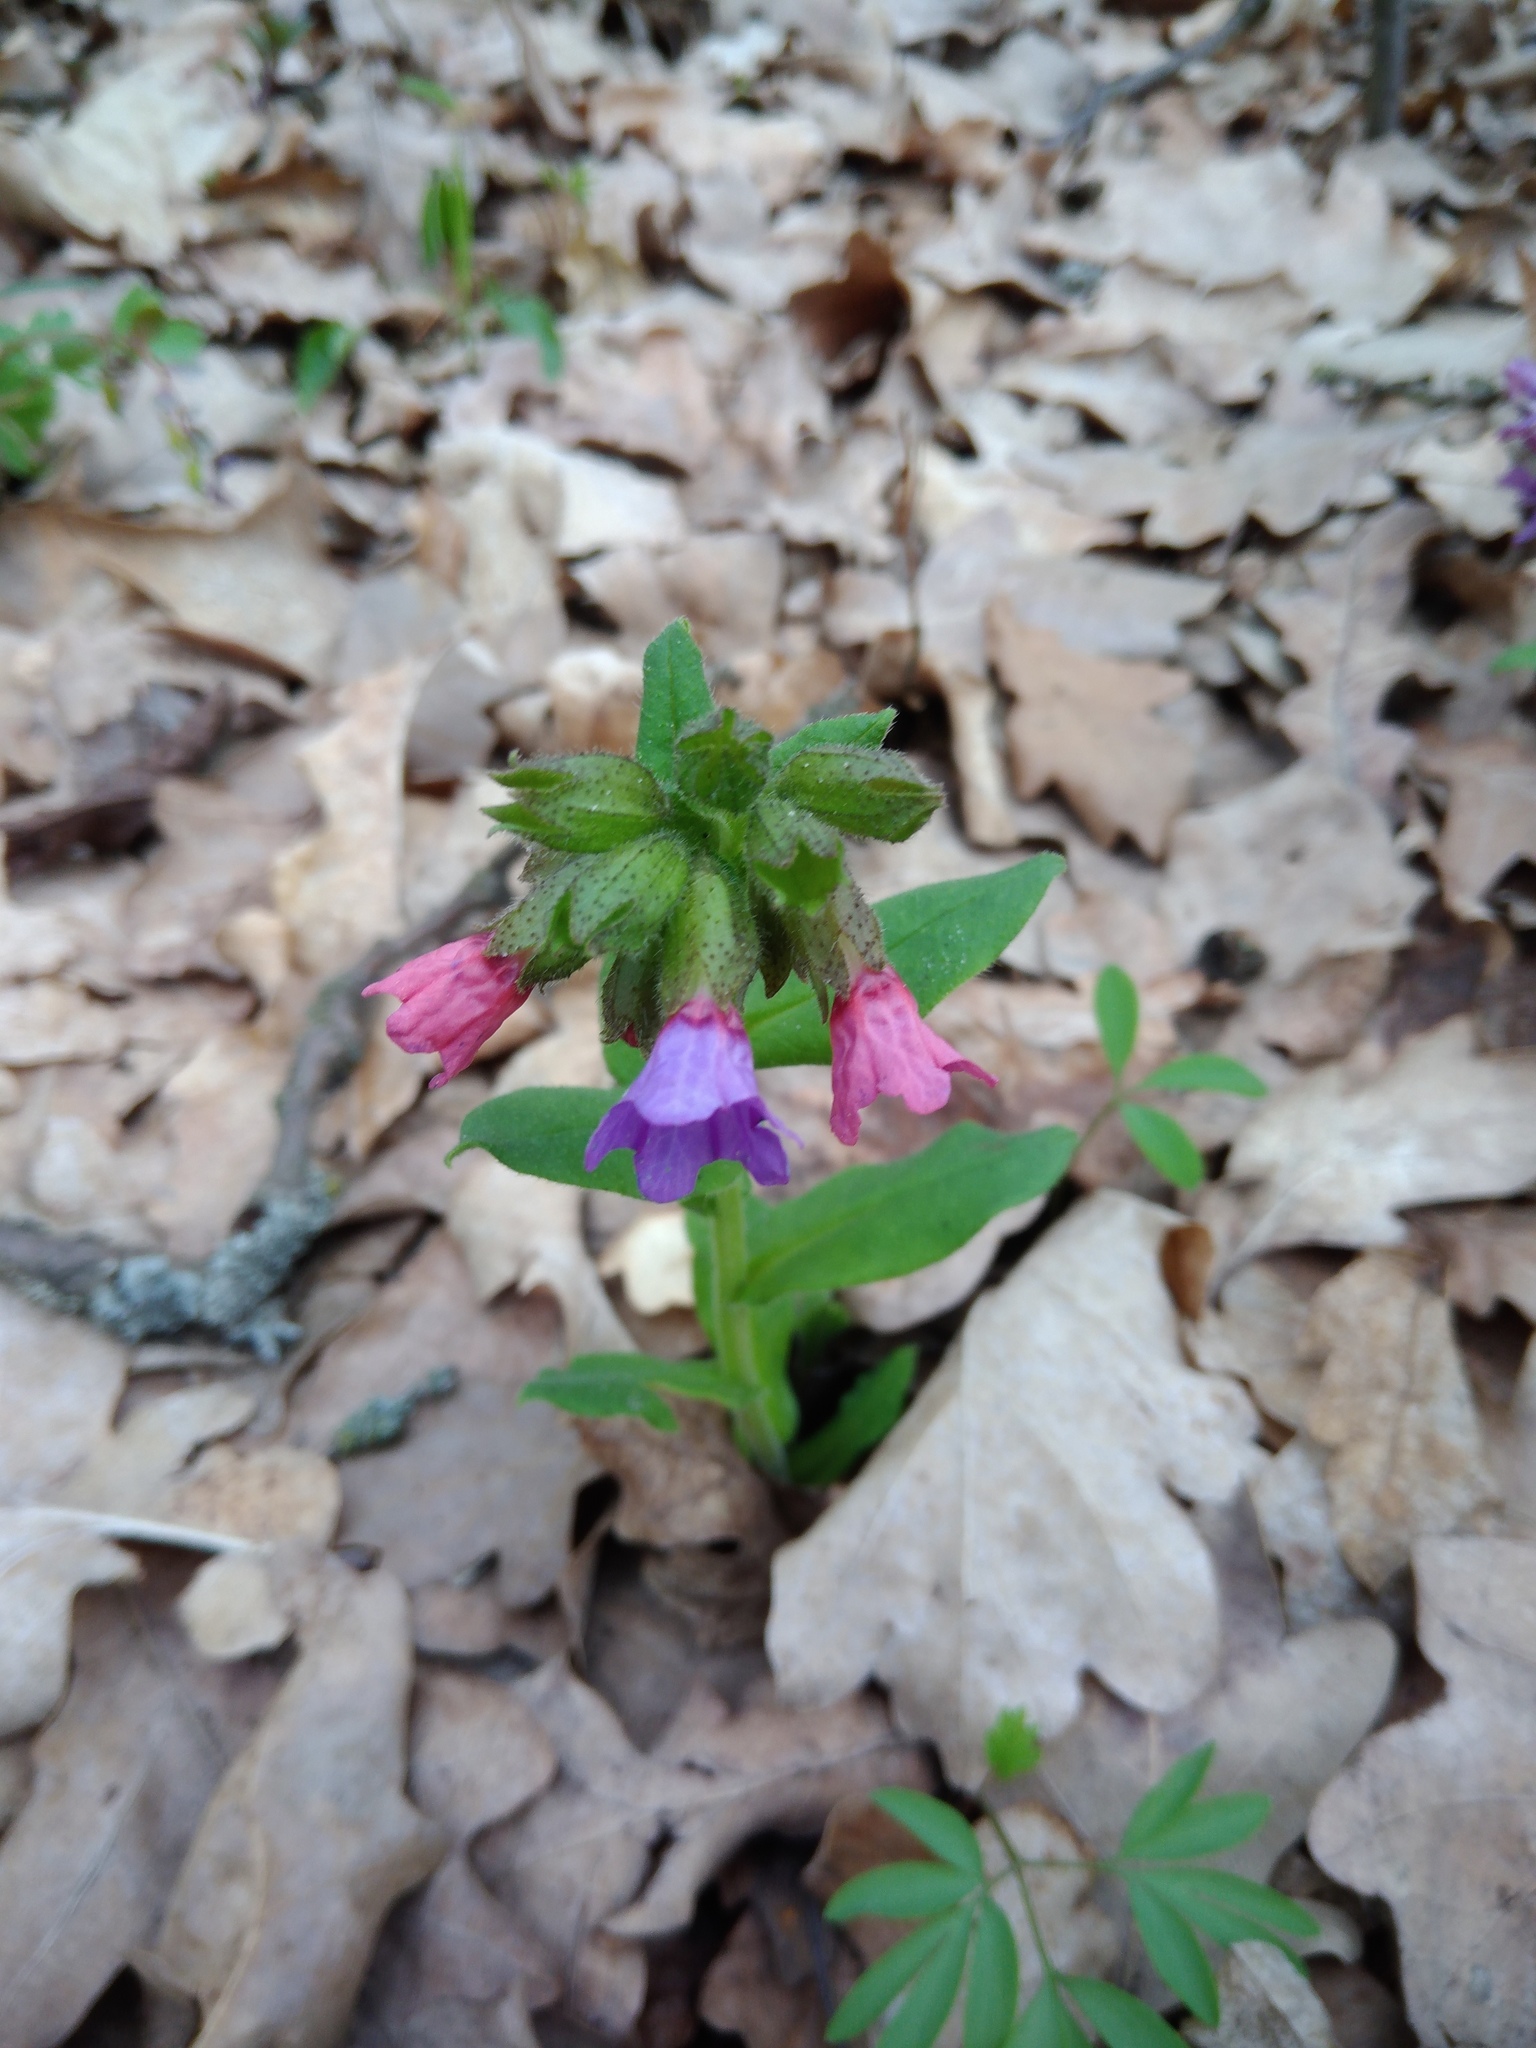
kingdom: Plantae
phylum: Tracheophyta
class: Magnoliopsida
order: Boraginales
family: Boraginaceae
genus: Pulmonaria
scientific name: Pulmonaria obscura
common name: Suffolk lungwort
